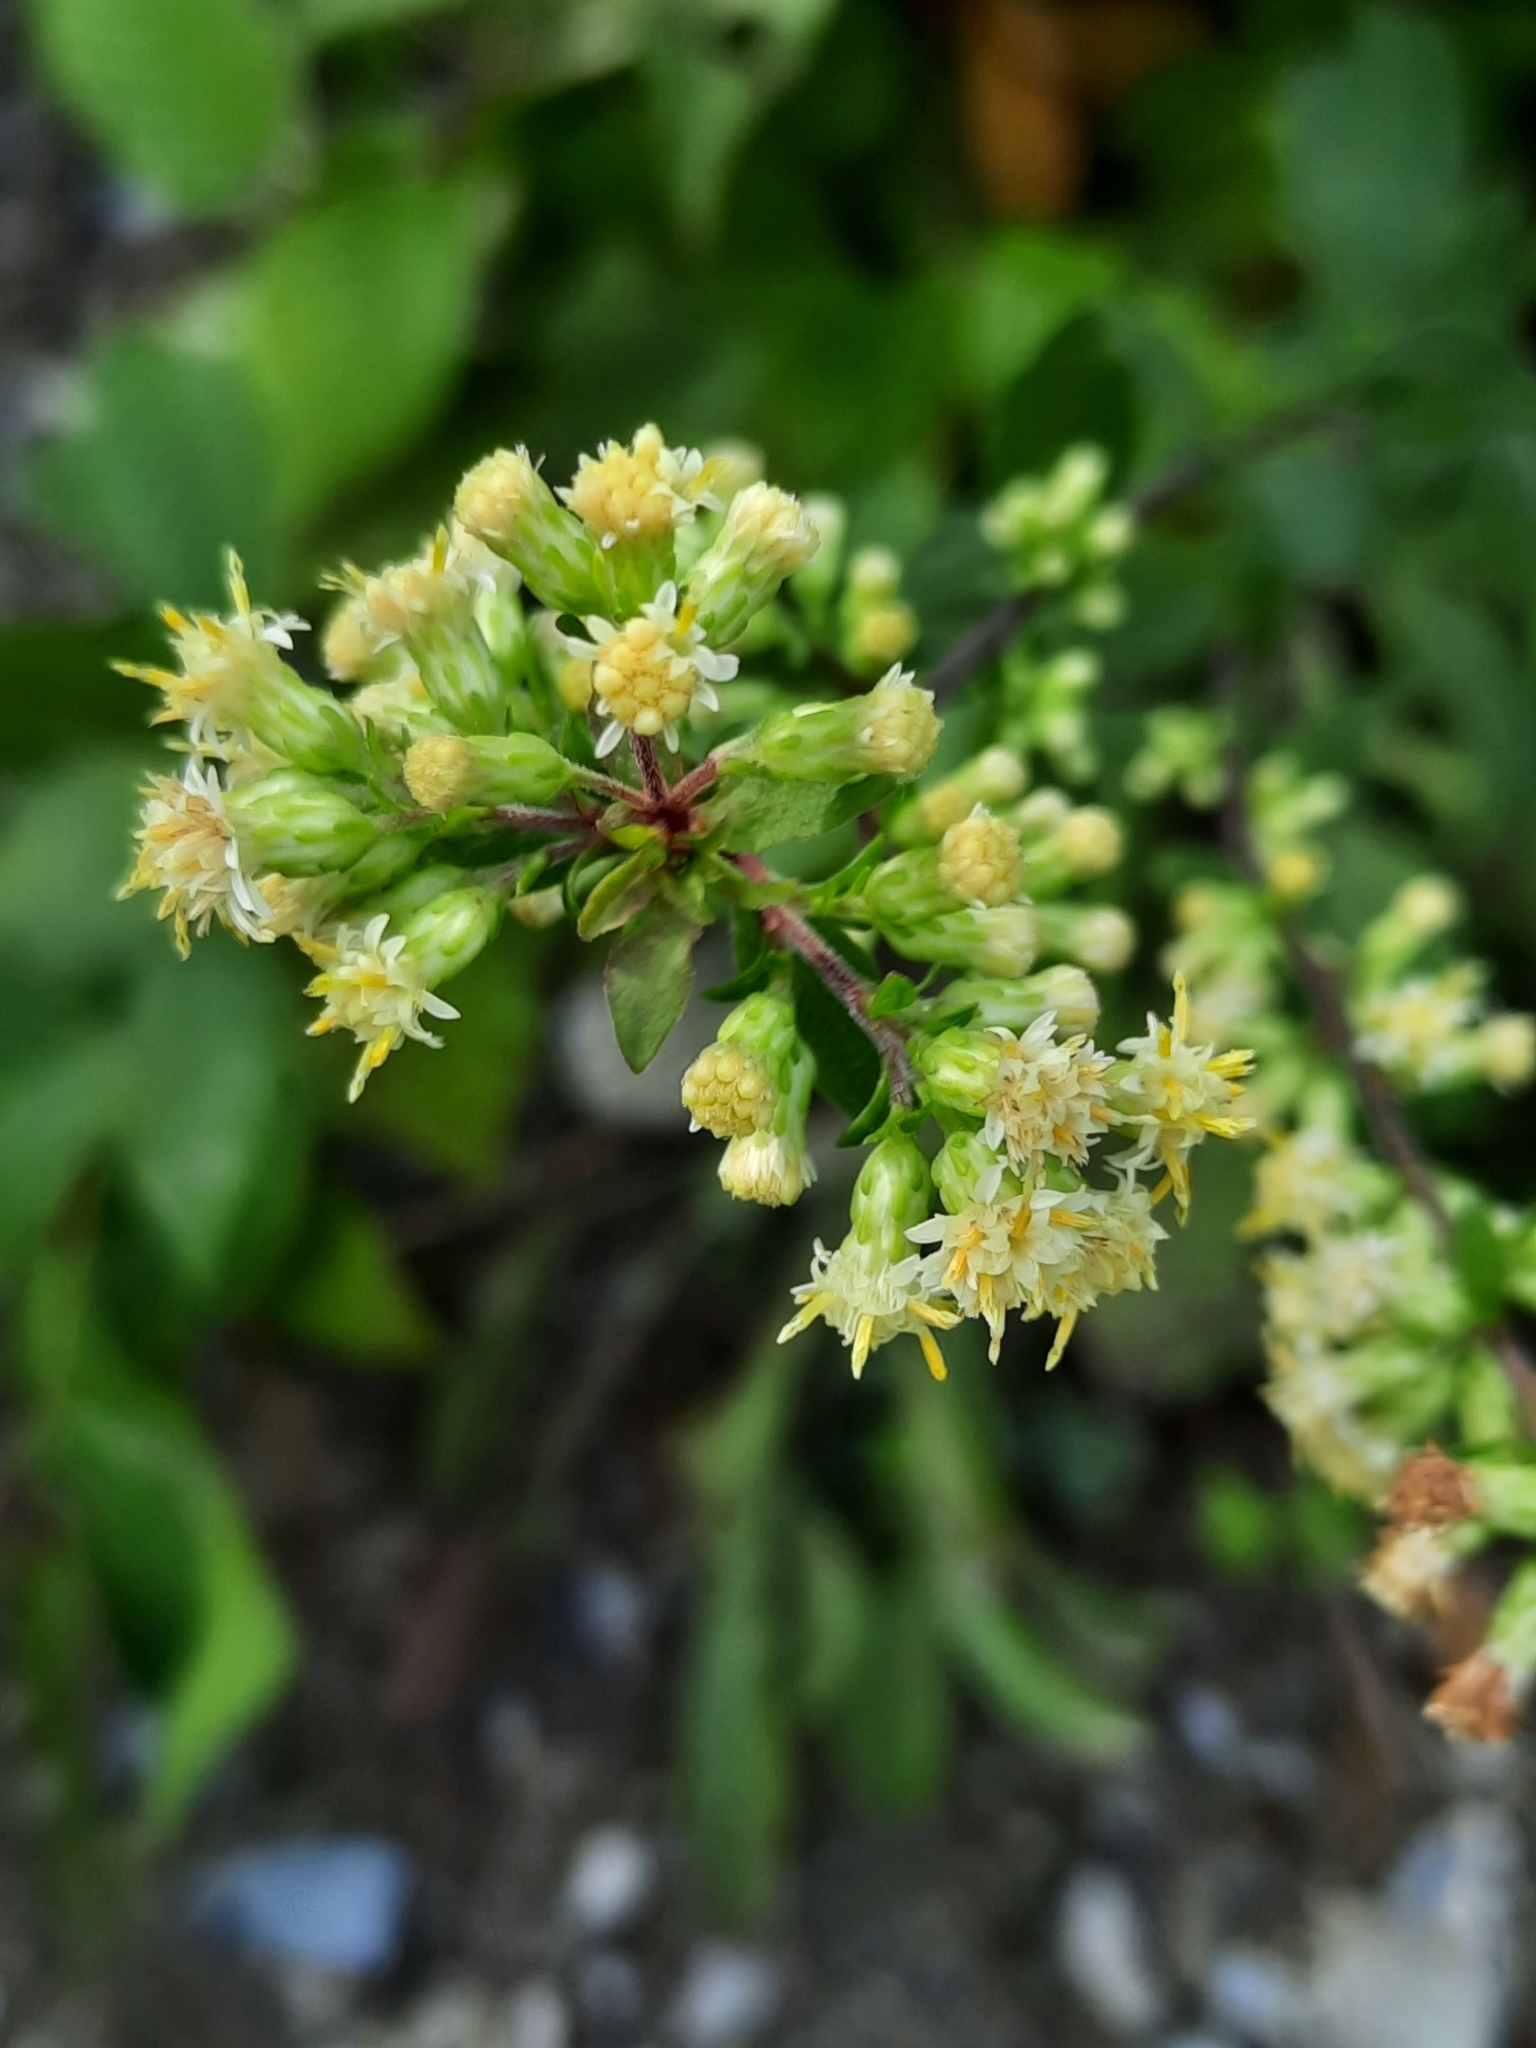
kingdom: Plantae
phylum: Tracheophyta
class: Magnoliopsida
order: Asterales
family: Asteraceae
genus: Solidago
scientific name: Solidago bicolor
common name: Silverrod
